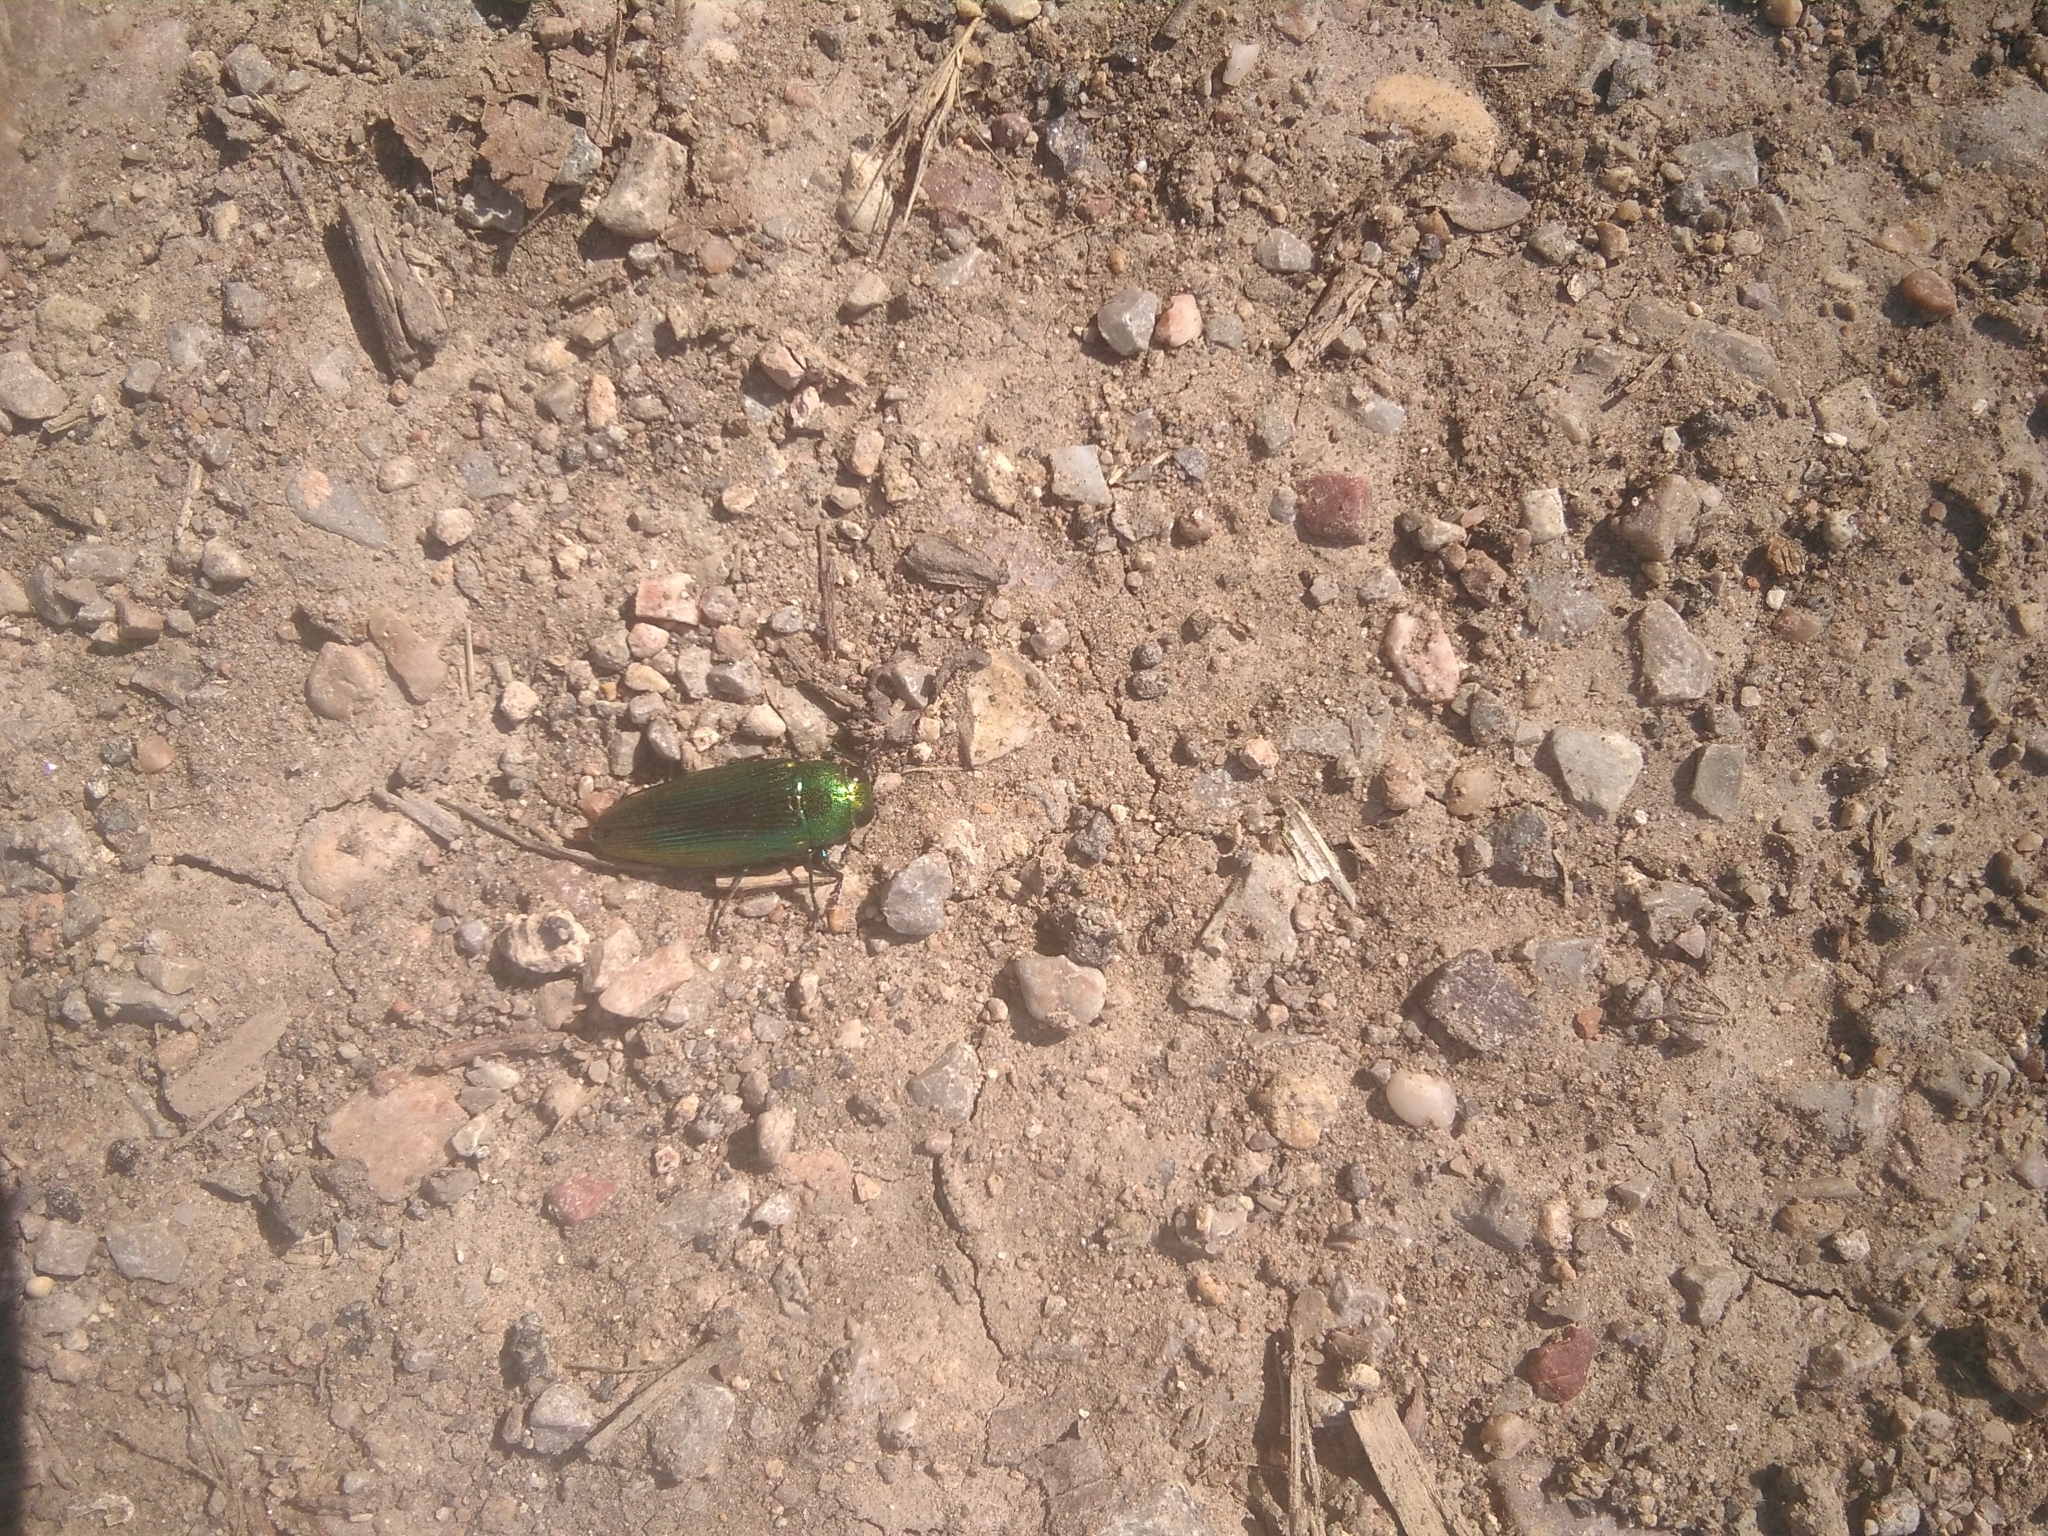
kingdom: Animalia
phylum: Arthropoda
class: Insecta
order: Coleoptera
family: Buprestidae
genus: Eurythyrea
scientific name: Eurythyrea micans
